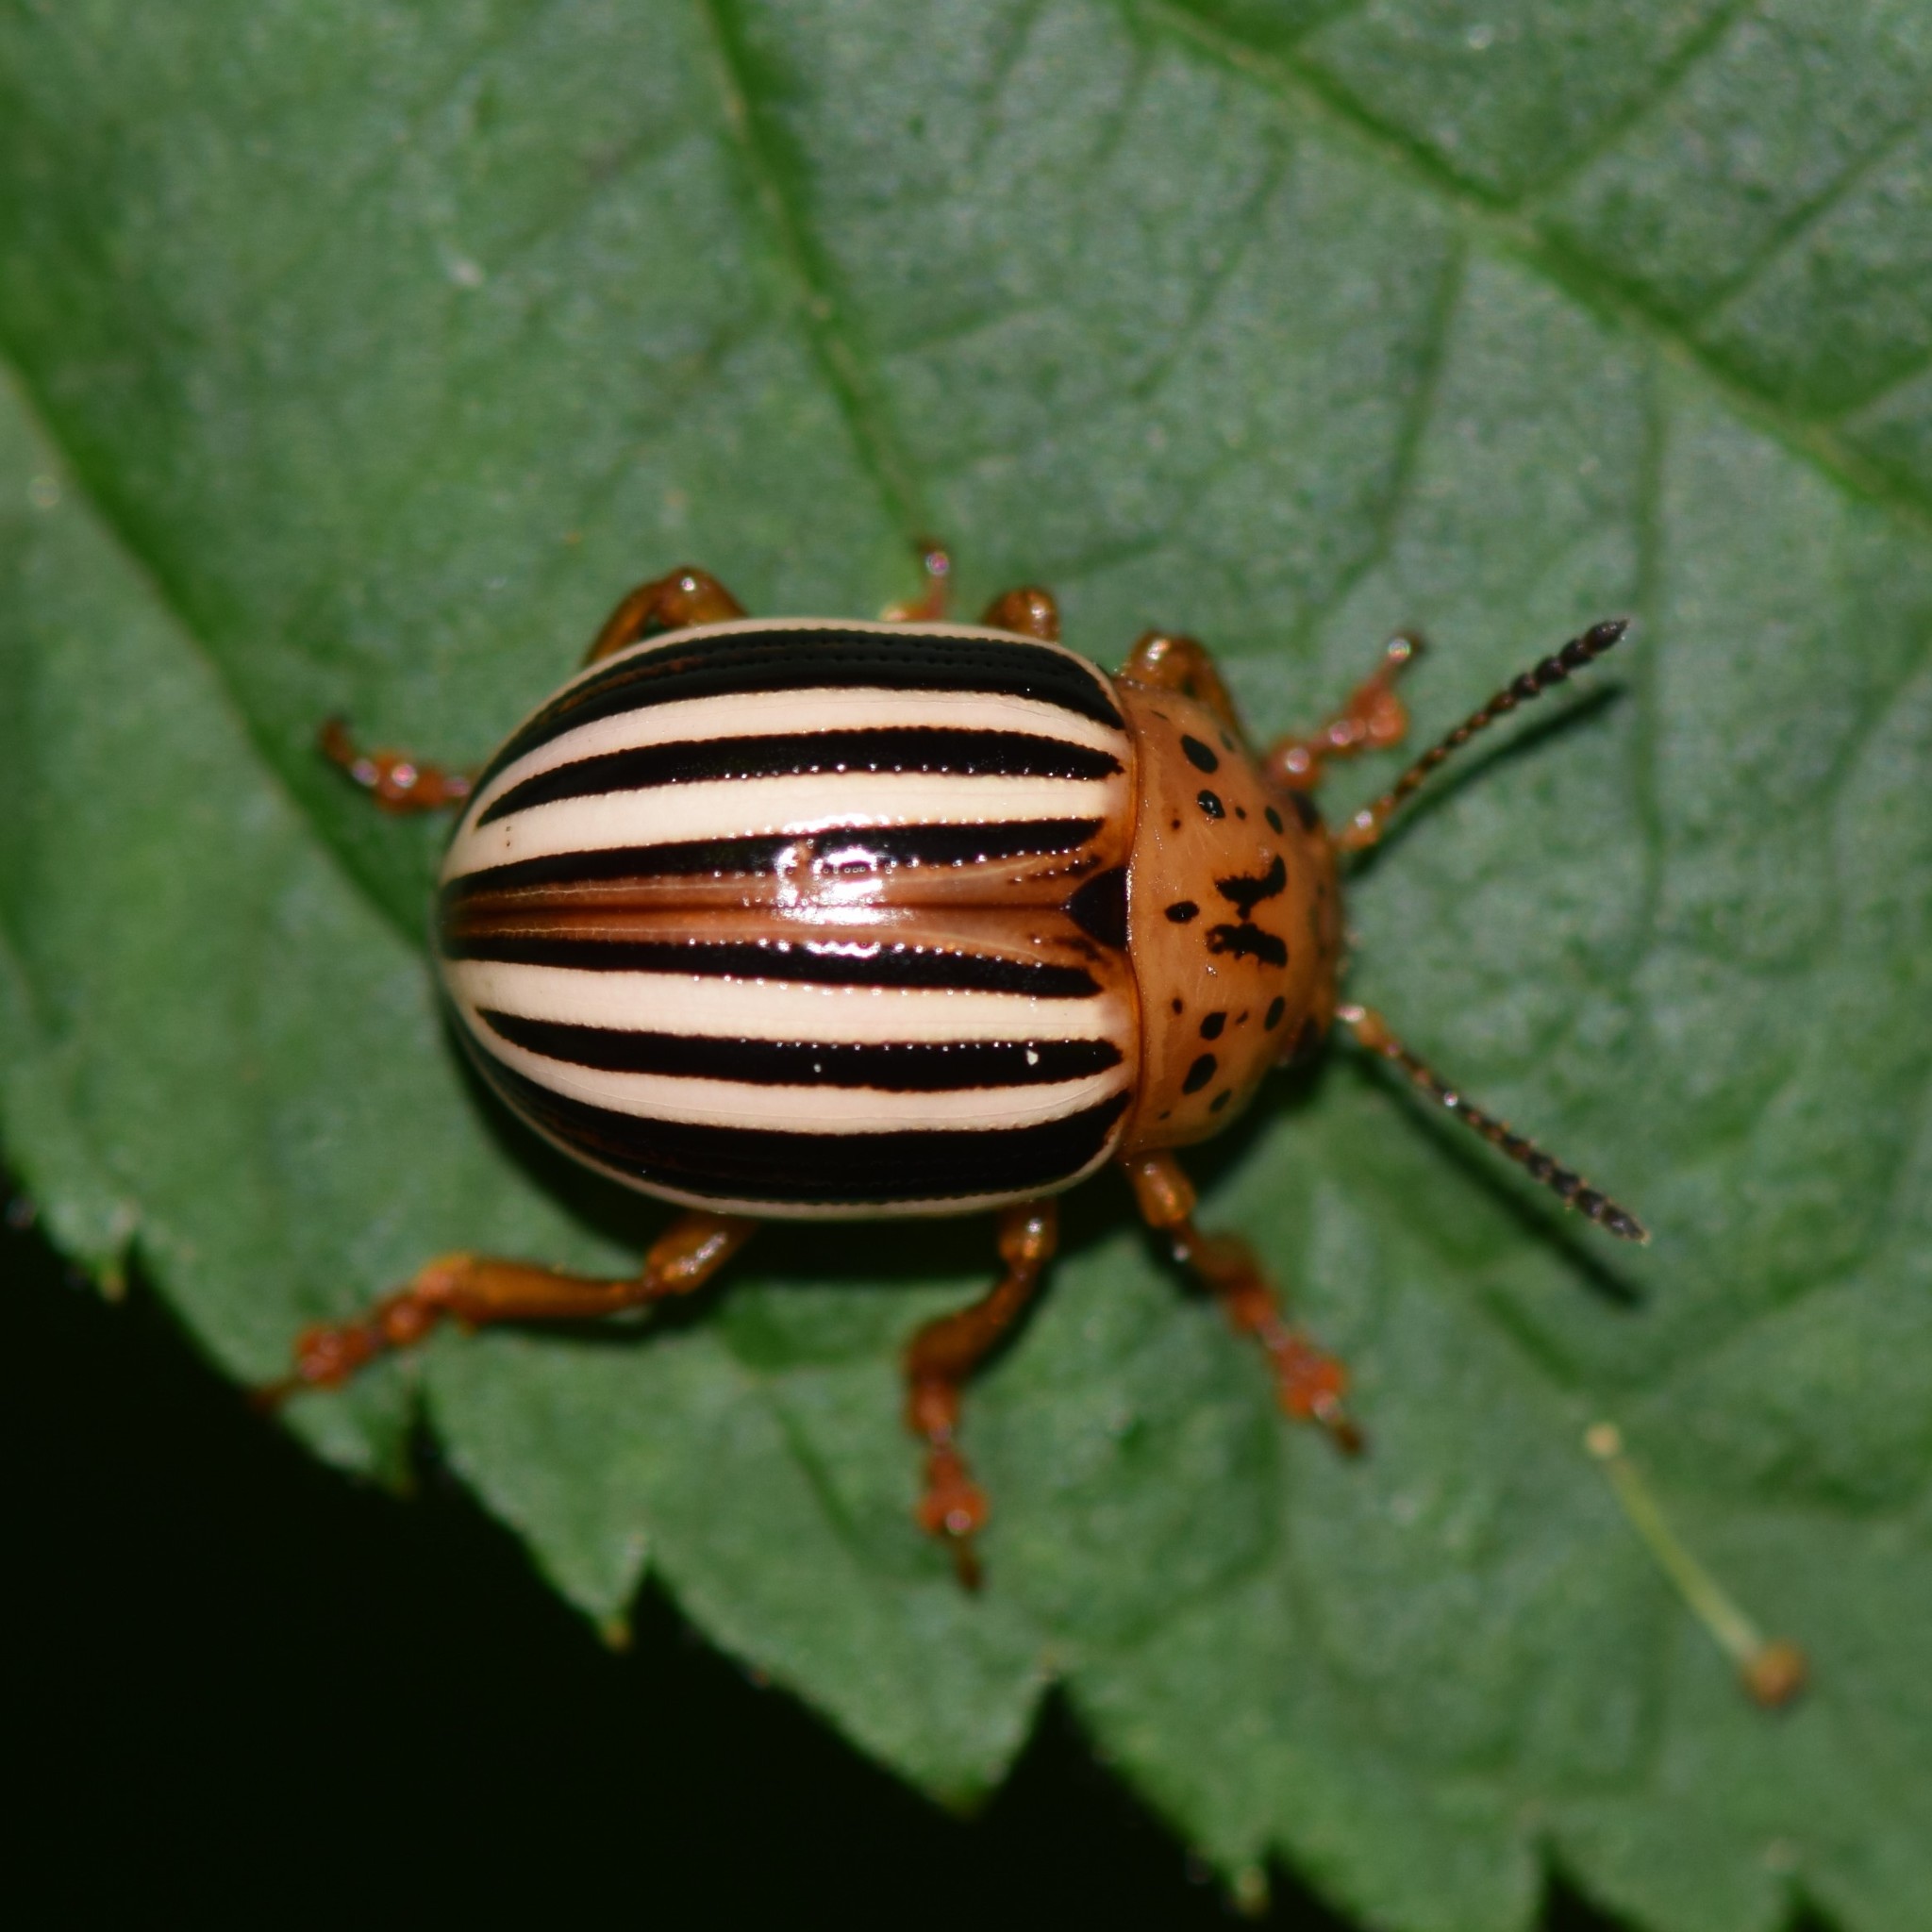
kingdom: Animalia
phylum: Arthropoda
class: Insecta
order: Coleoptera
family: Chrysomelidae
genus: Leptinotarsa
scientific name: Leptinotarsa juncta
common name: False potato beetle
